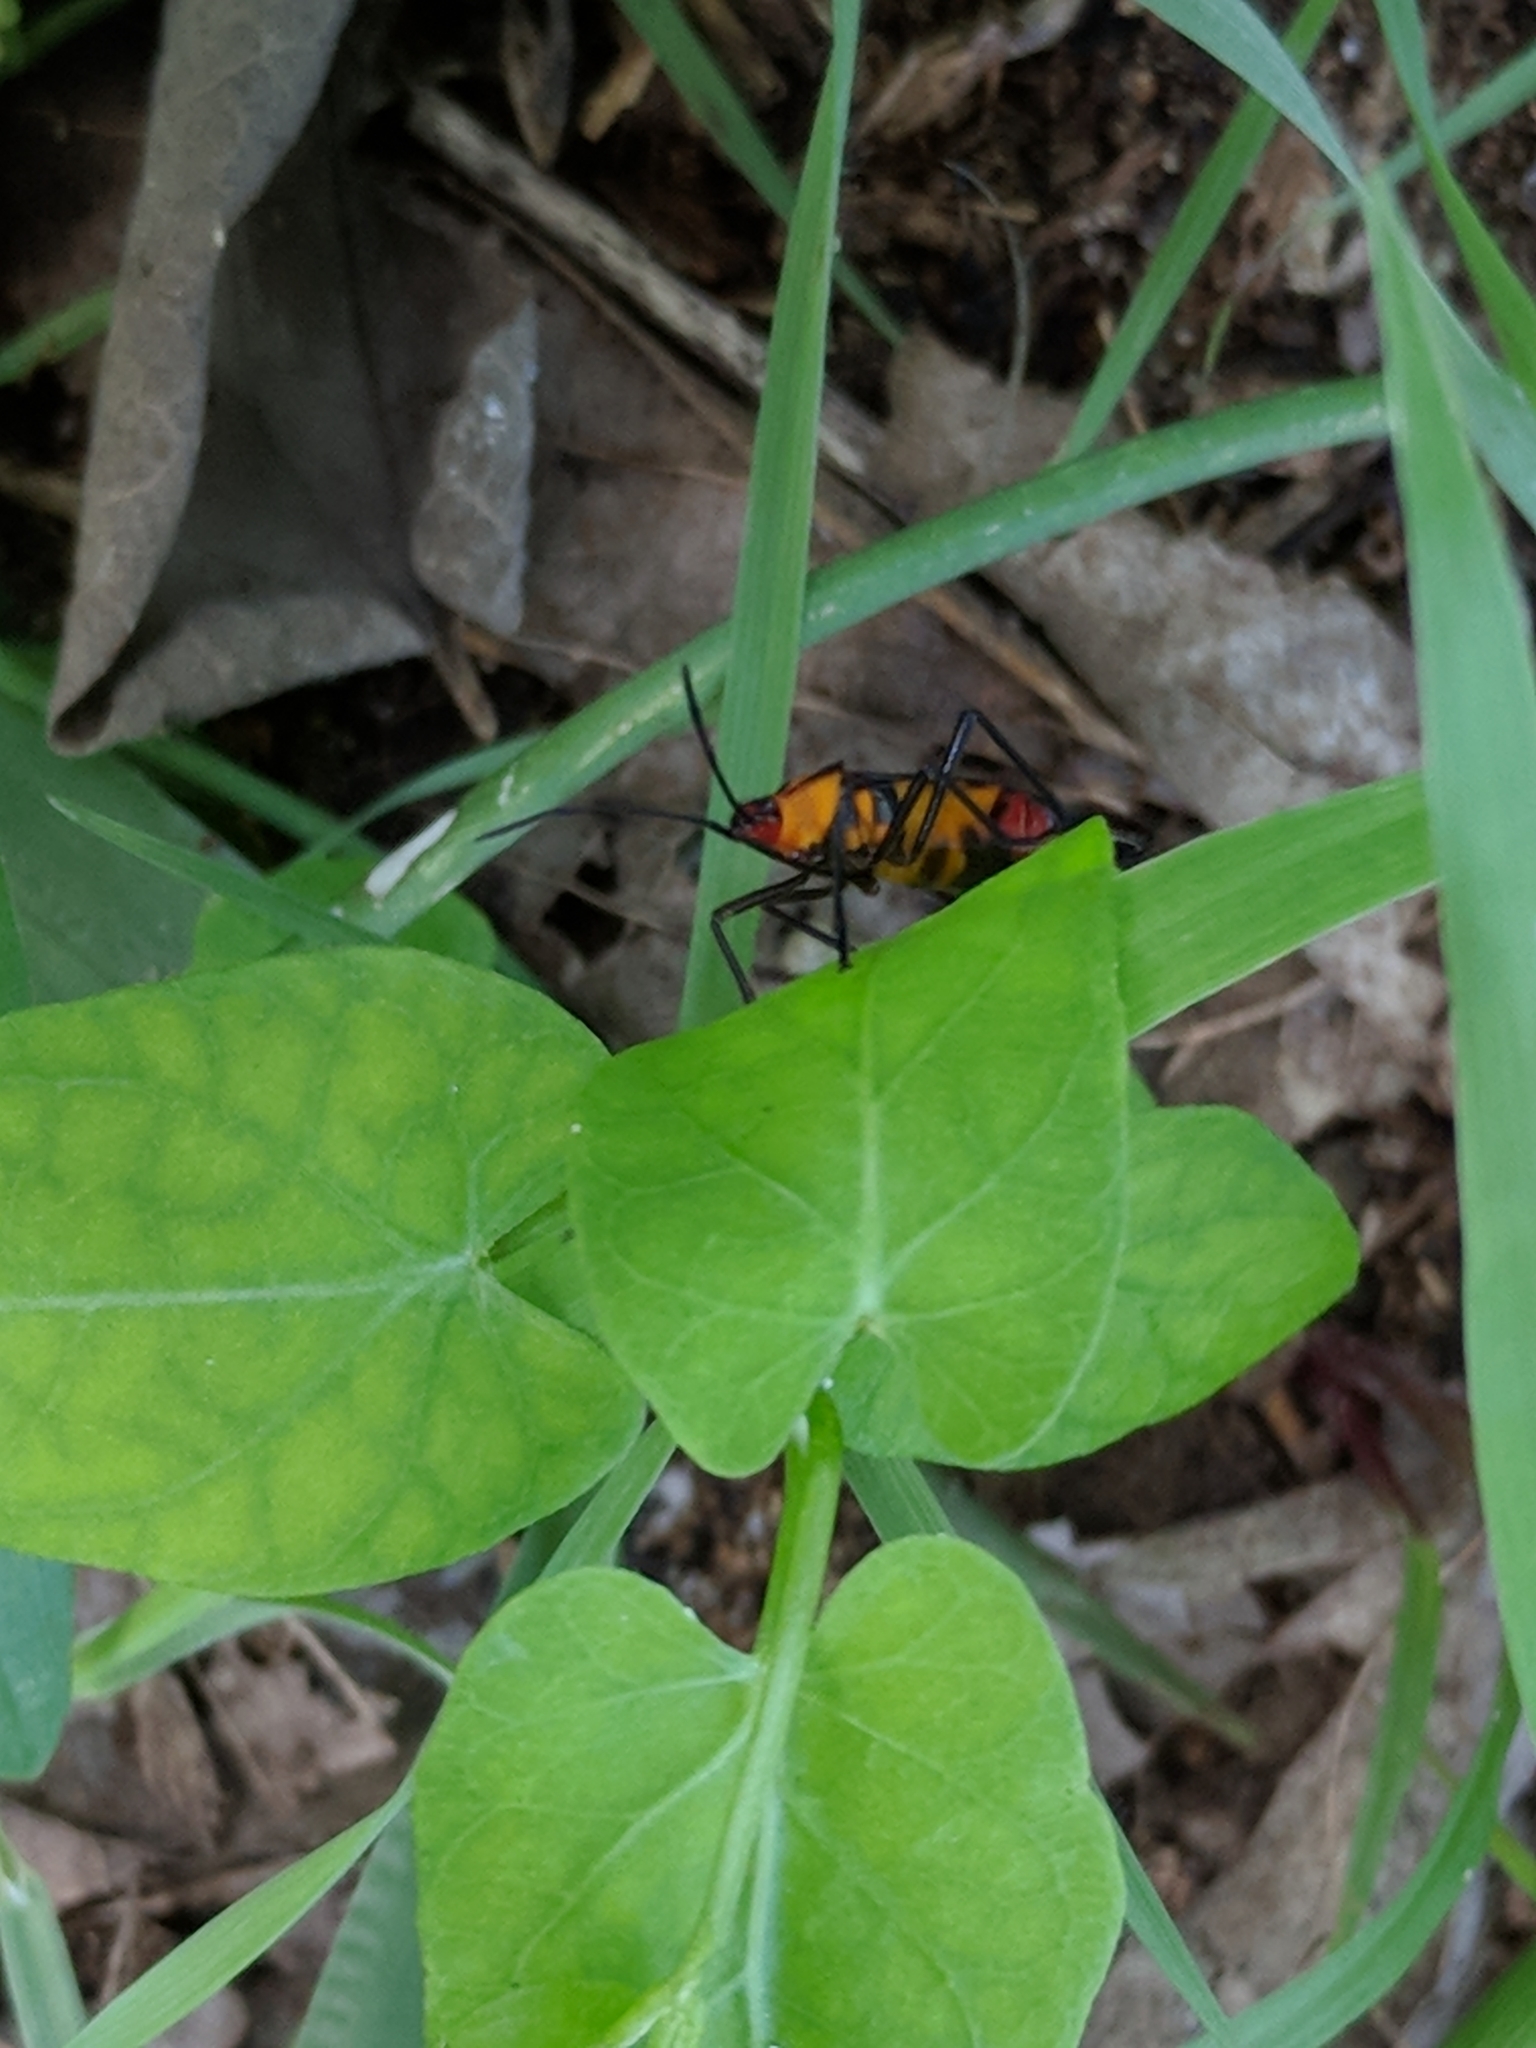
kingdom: Animalia
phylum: Arthropoda
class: Insecta
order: Hemiptera
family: Lygaeidae
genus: Oncopeltus
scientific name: Oncopeltus sexmaculatus
